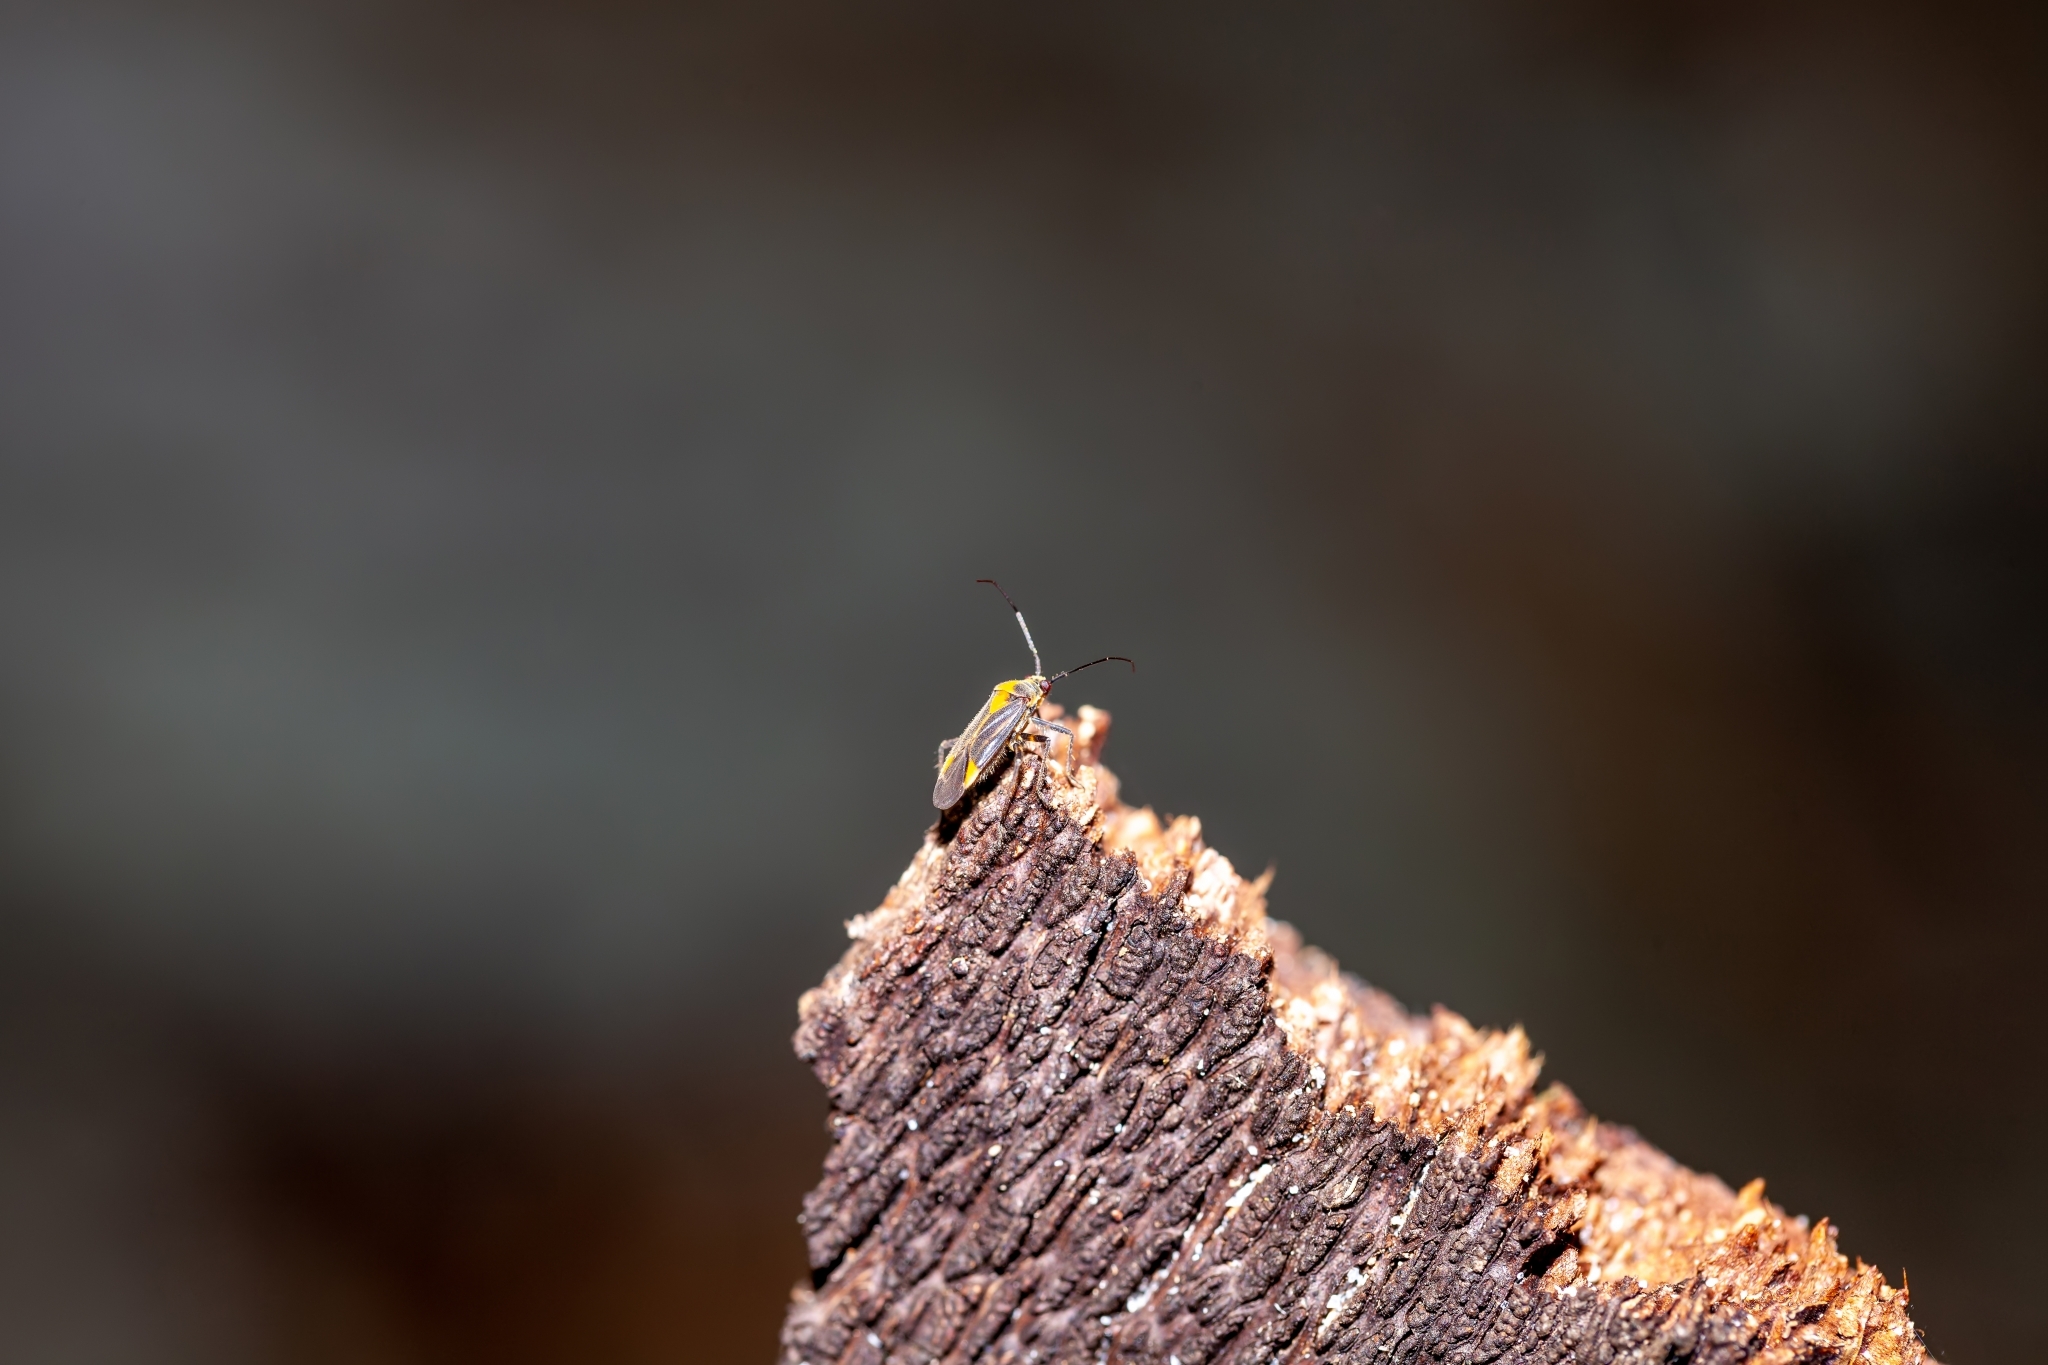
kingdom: Animalia
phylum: Arthropoda
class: Insecta
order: Hemiptera
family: Miridae
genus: Prepops
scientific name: Prepops cruciferus
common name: Plant bug
